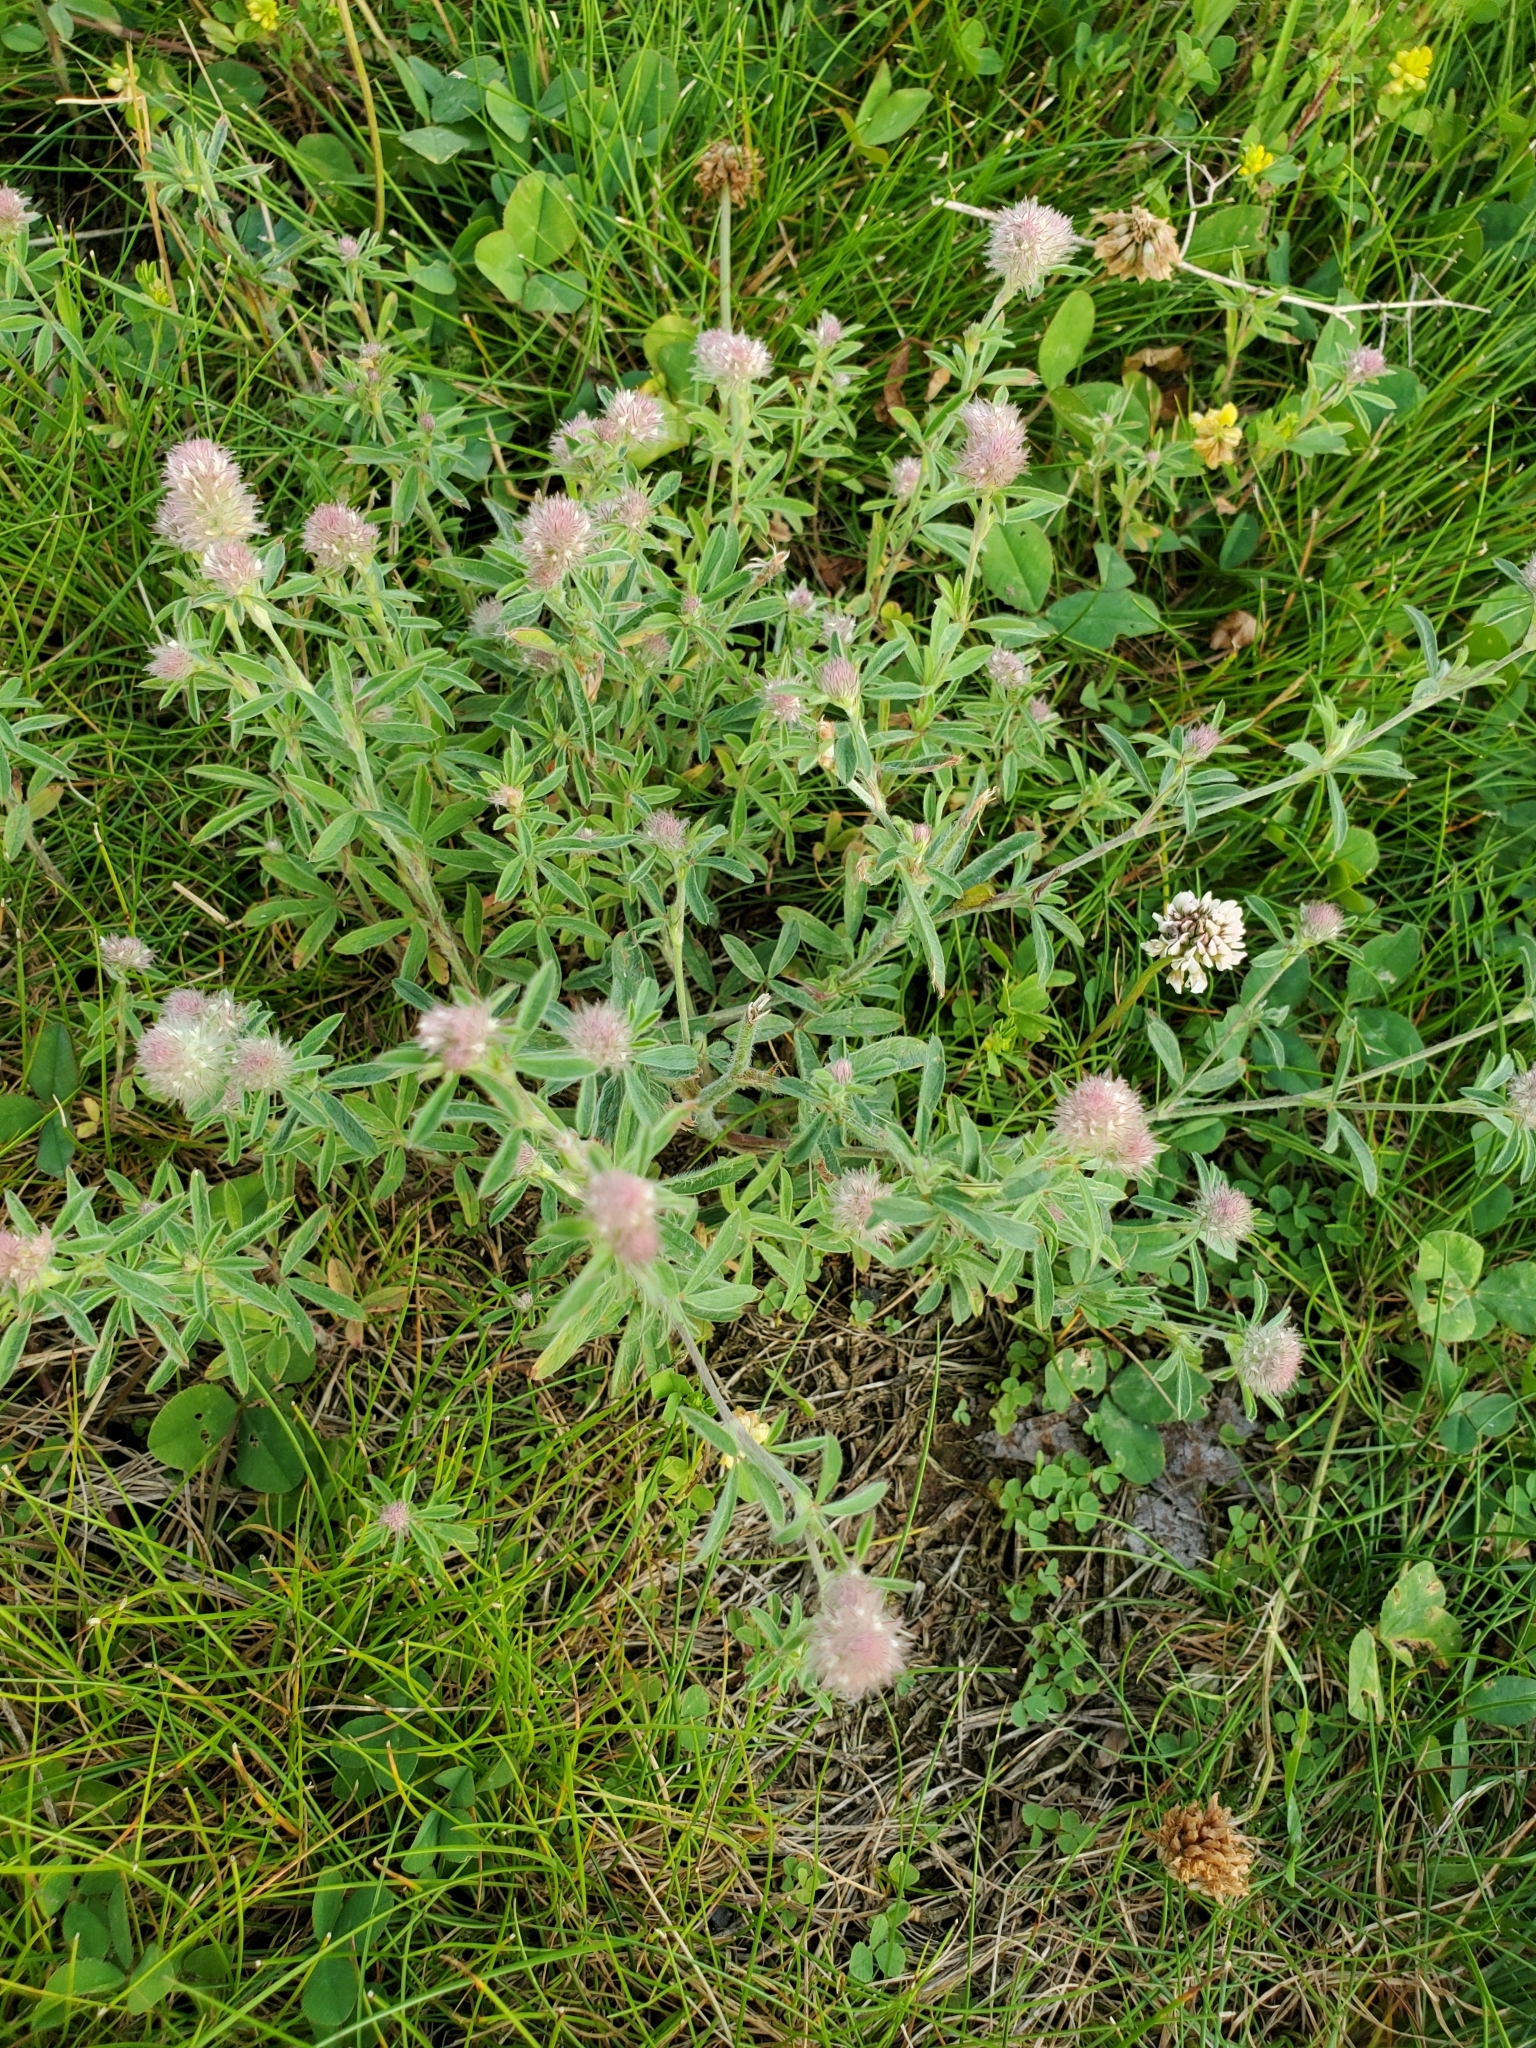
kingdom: Plantae
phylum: Tracheophyta
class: Magnoliopsida
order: Fabales
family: Fabaceae
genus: Trifolium
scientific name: Trifolium arvense
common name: Hare's-foot clover
